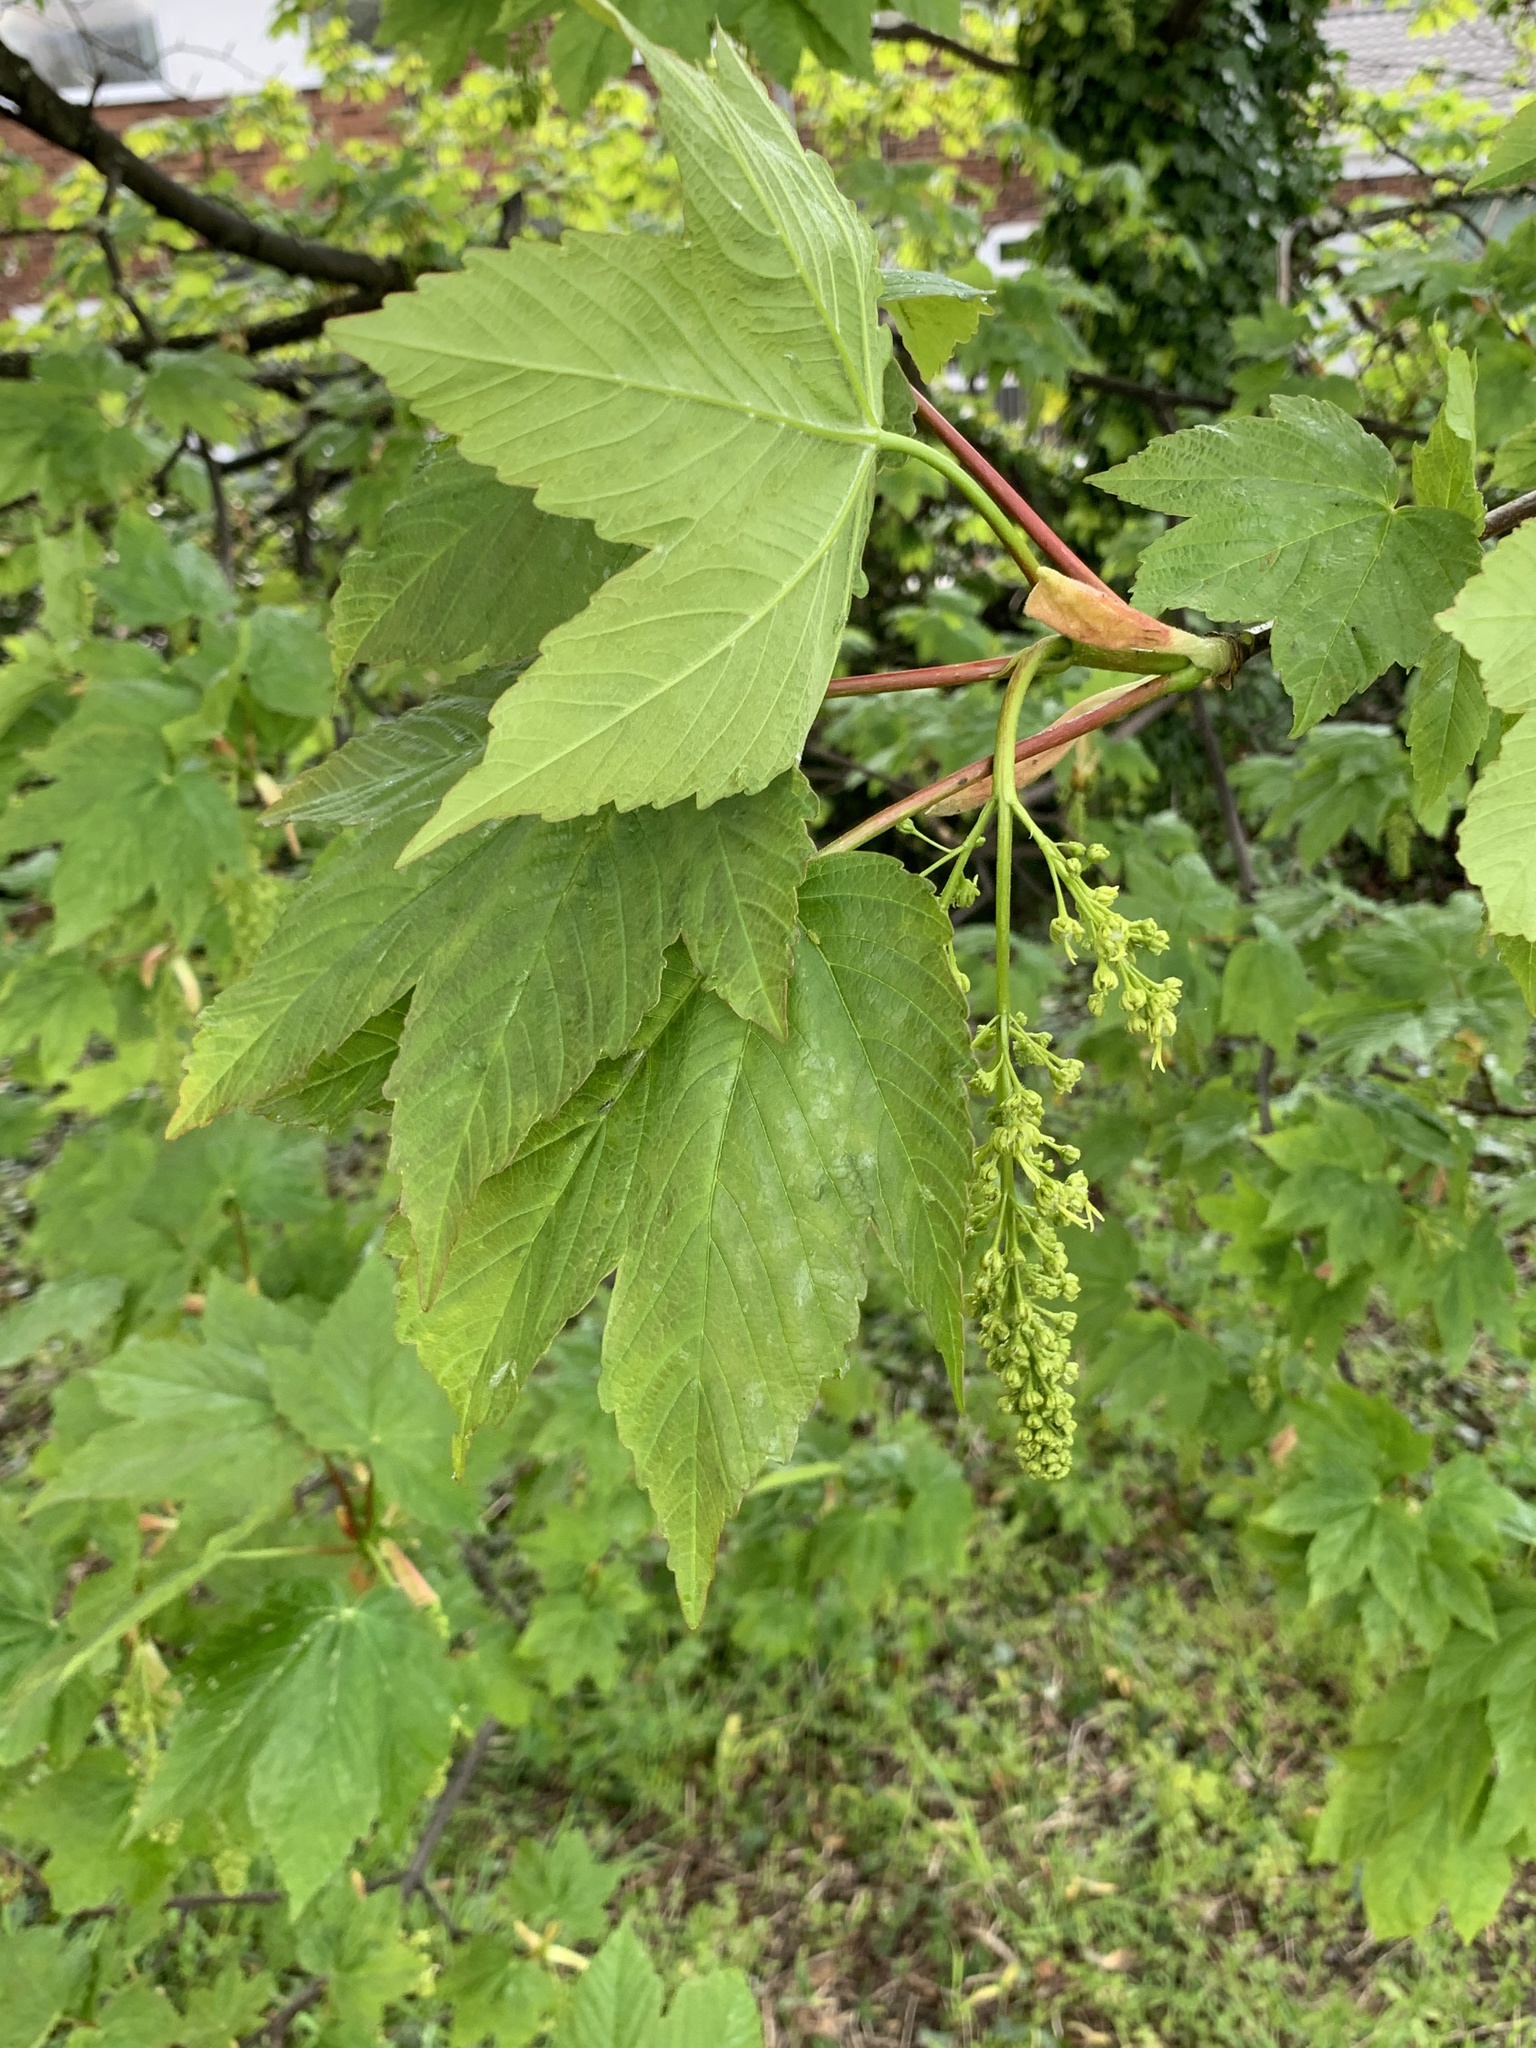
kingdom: Plantae
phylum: Tracheophyta
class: Magnoliopsida
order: Sapindales
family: Sapindaceae
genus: Acer
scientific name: Acer pseudoplatanus
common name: Sycamore
